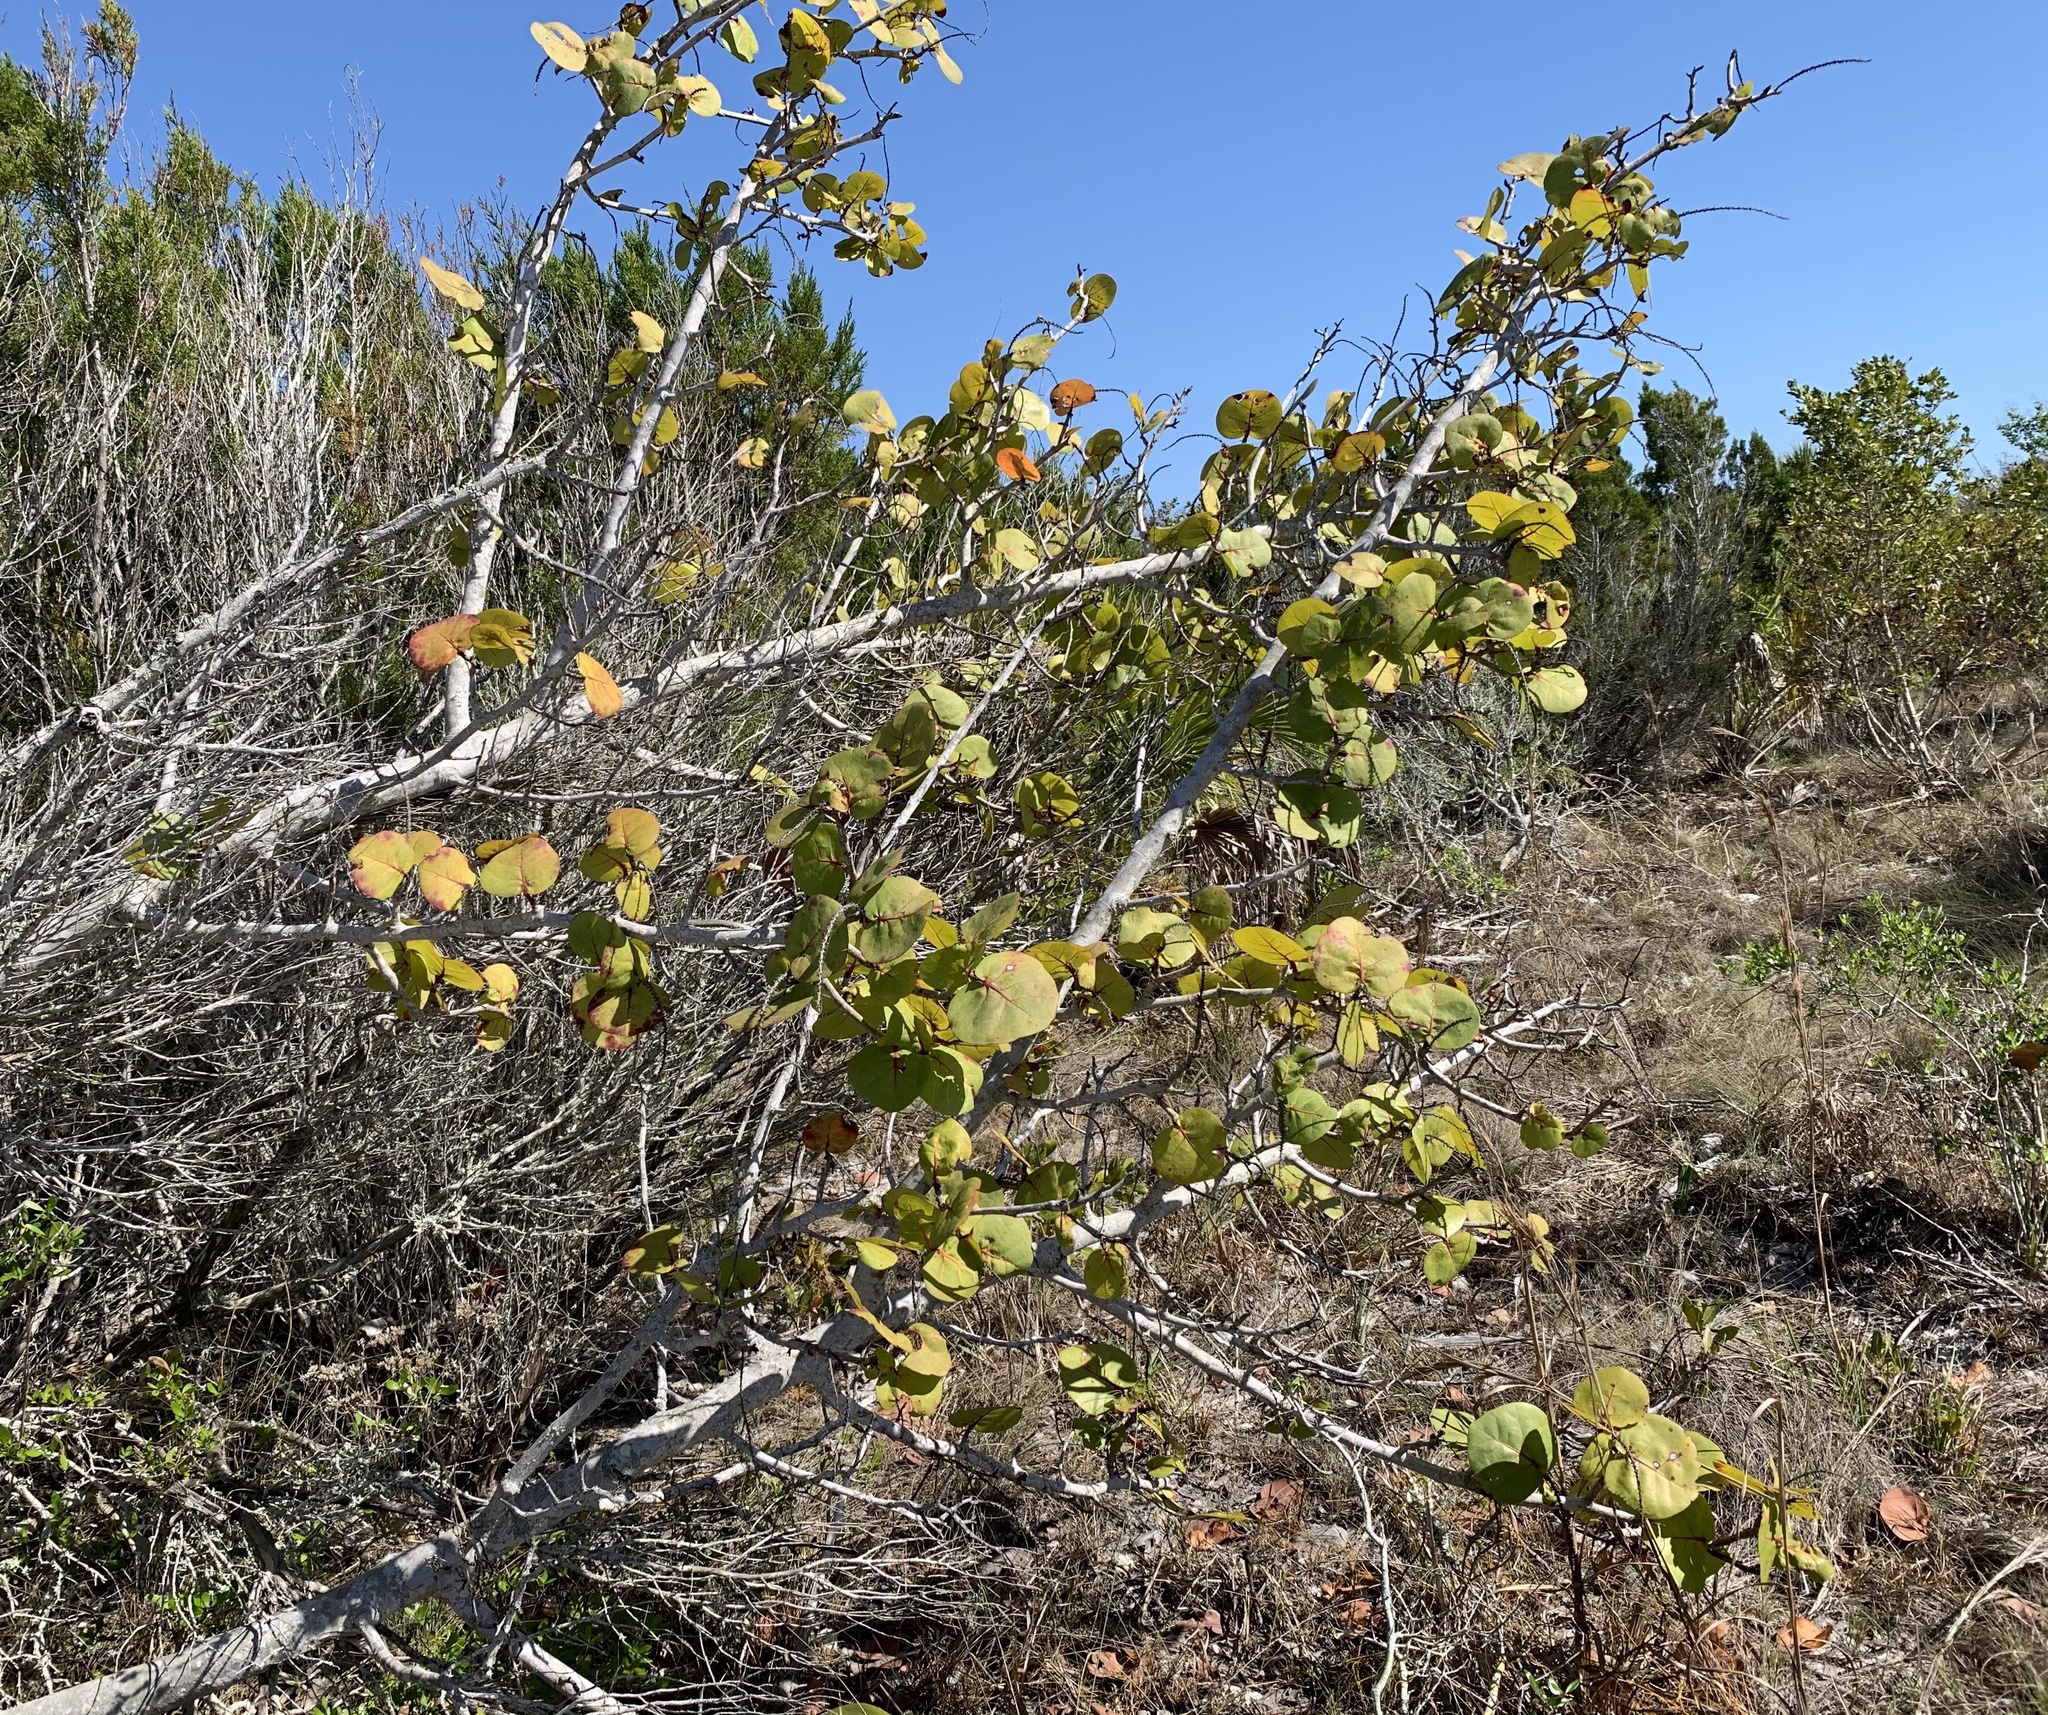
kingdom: Plantae
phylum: Tracheophyta
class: Magnoliopsida
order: Caryophyllales
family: Polygonaceae
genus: Coccoloba
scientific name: Coccoloba uvifera
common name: Seagrape
